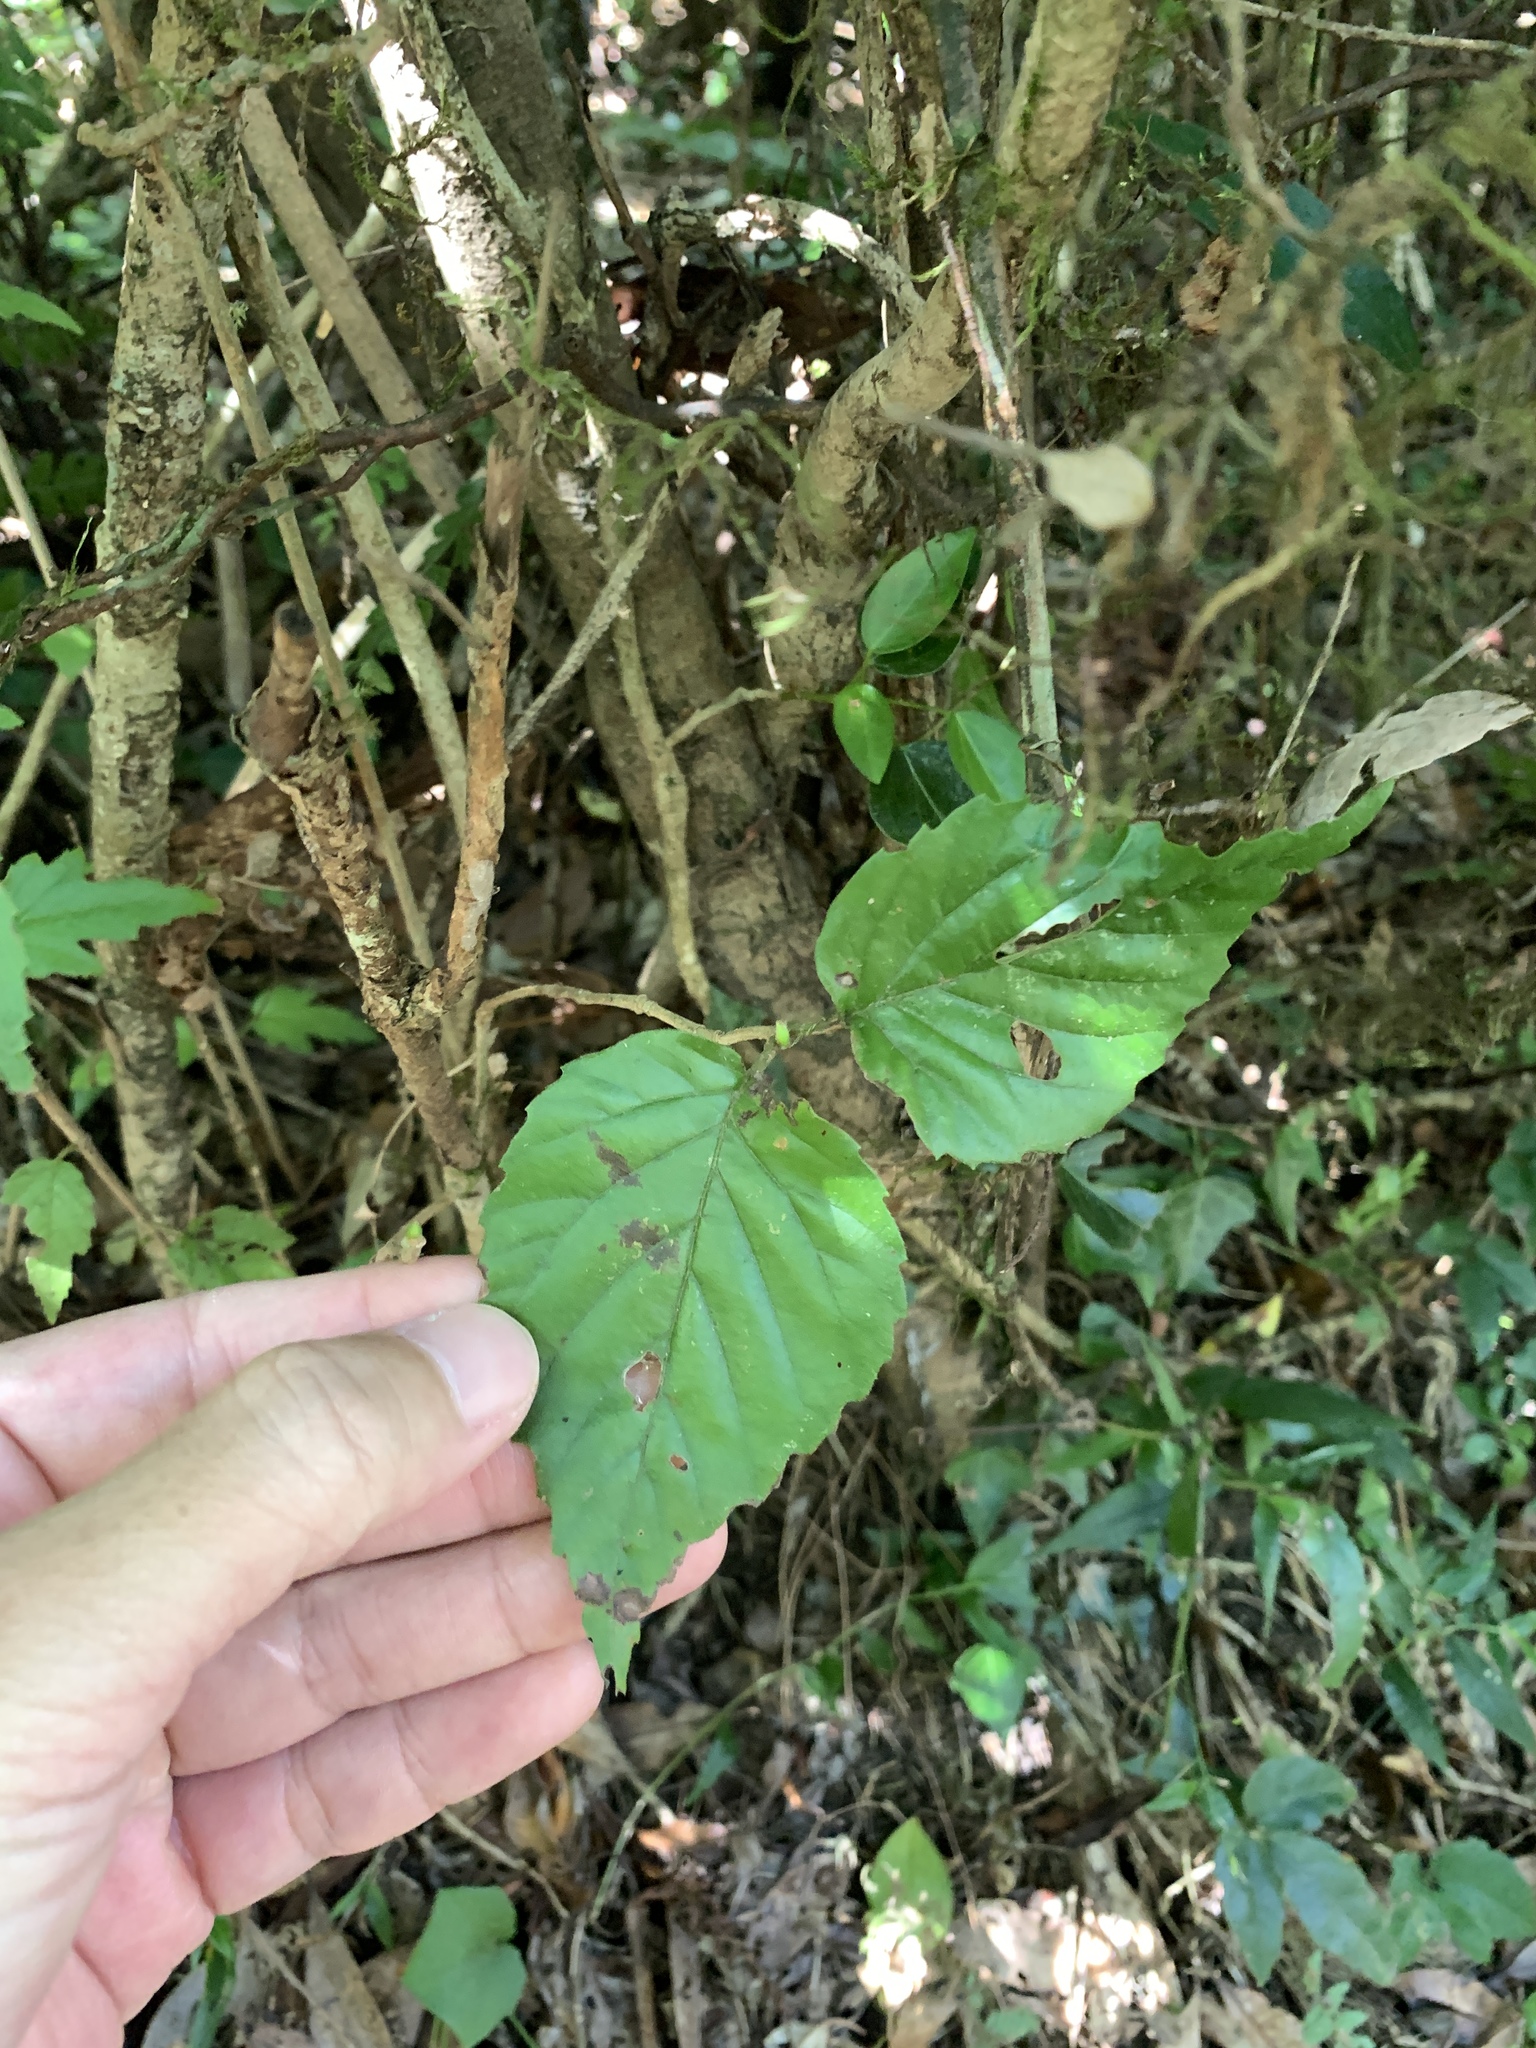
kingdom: Plantae
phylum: Tracheophyta
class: Magnoliopsida
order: Dipsacales
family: Viburnaceae
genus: Viburnum
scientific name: Viburnum luzonicum
